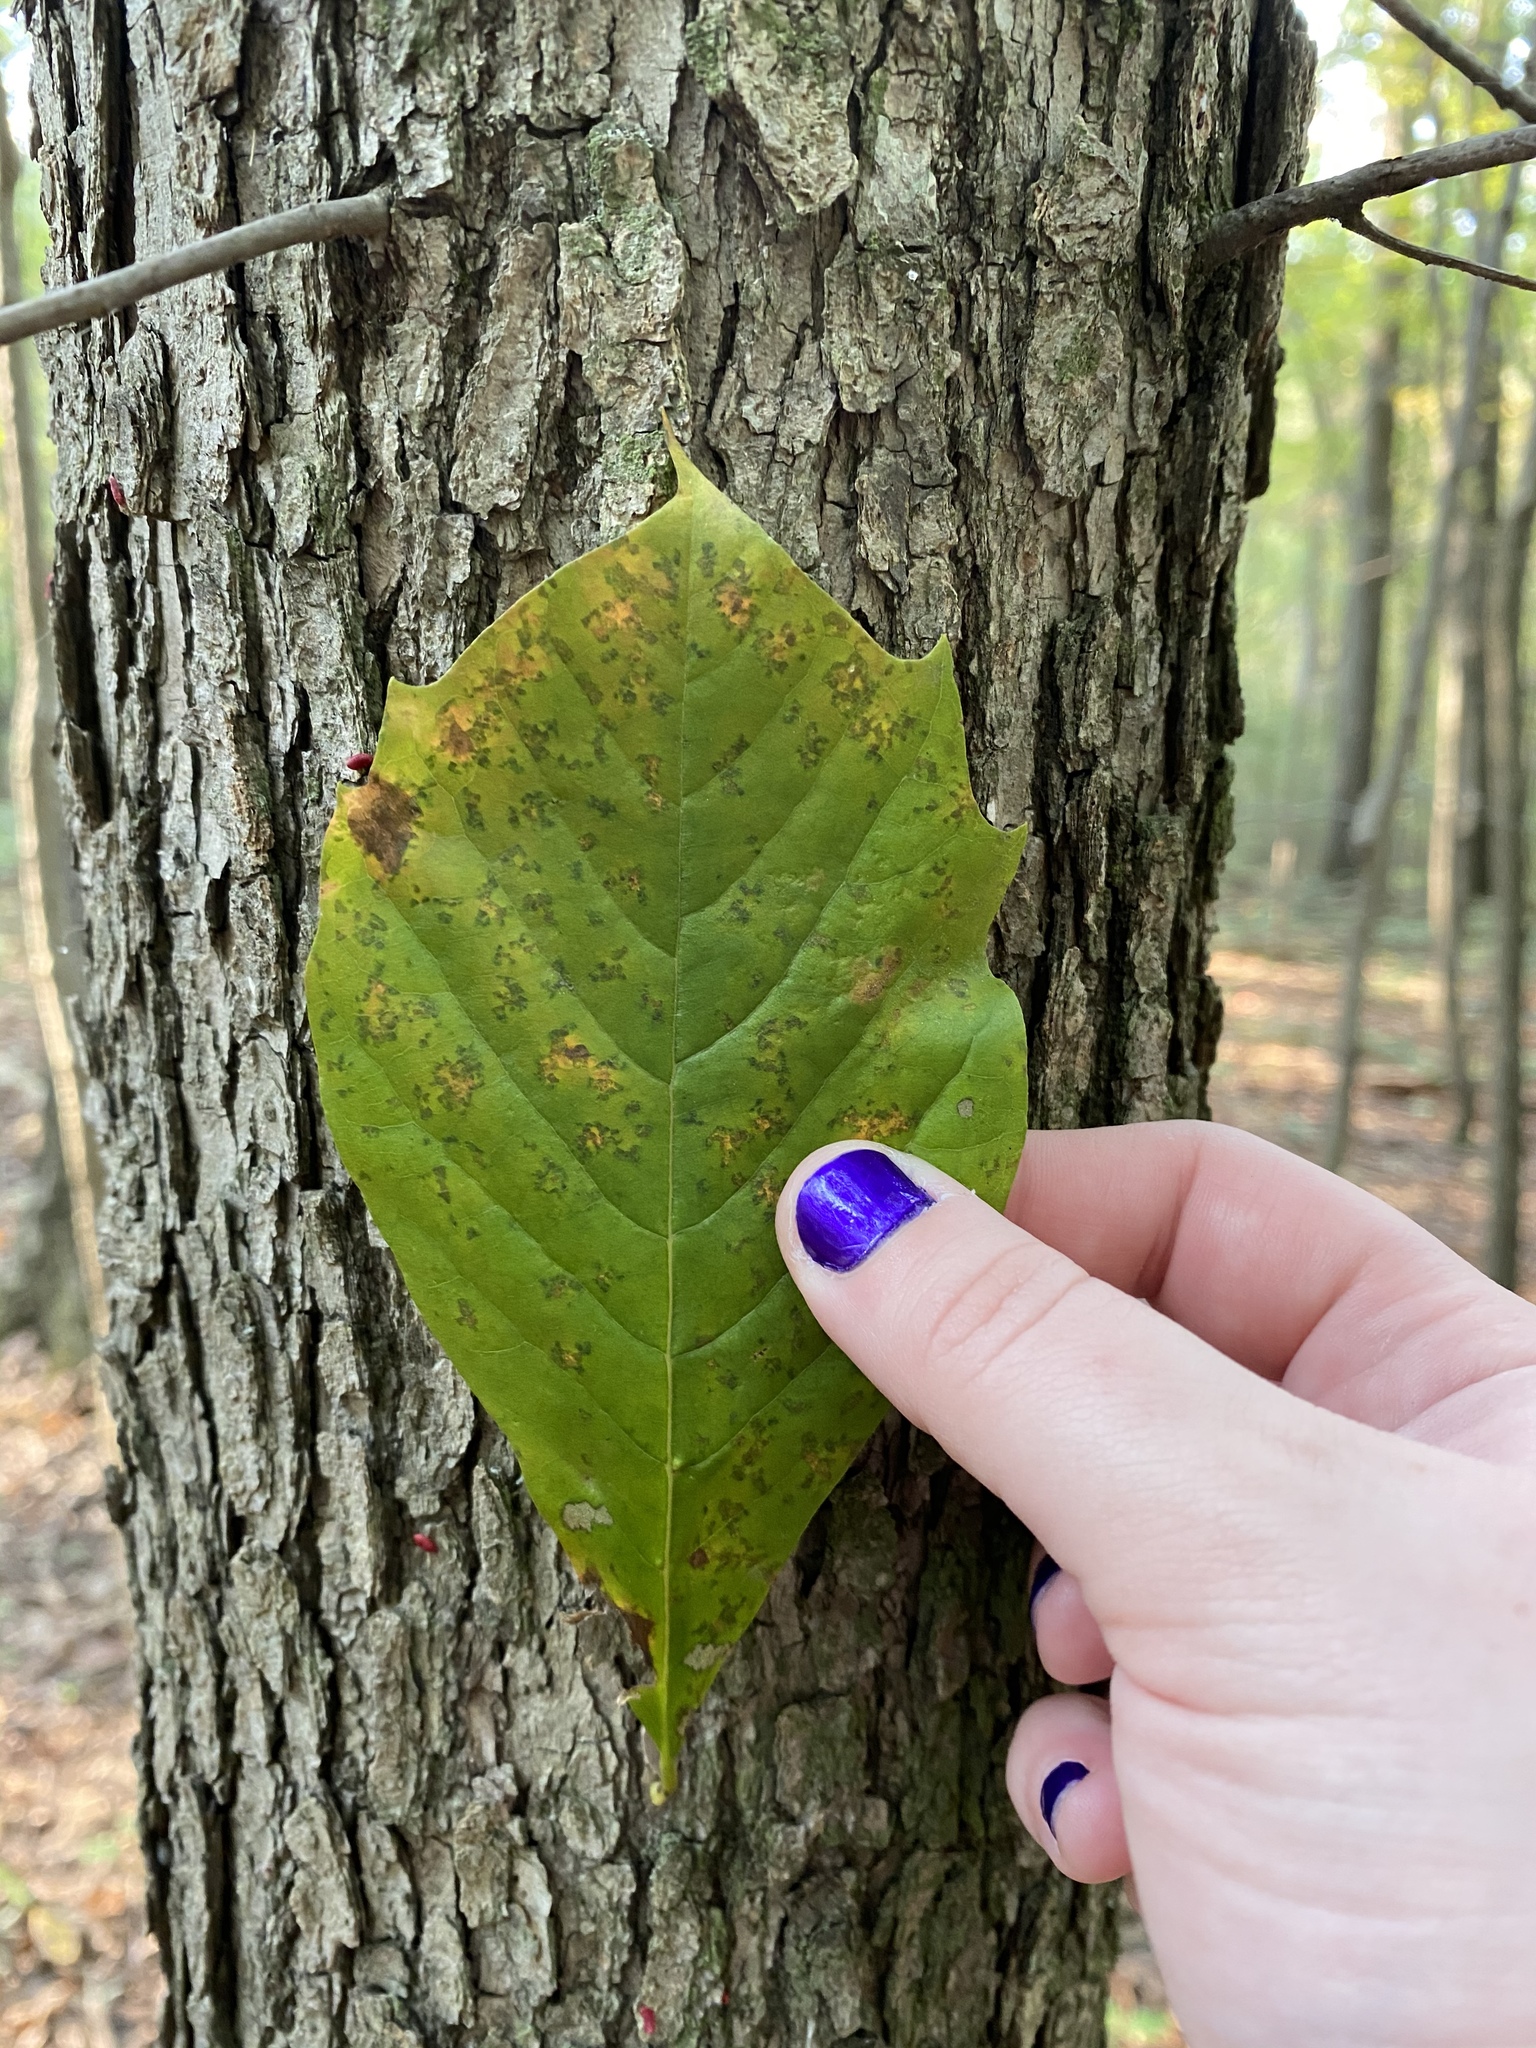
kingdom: Plantae
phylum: Tracheophyta
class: Magnoliopsida
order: Cornales
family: Nyssaceae
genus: Nyssa
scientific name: Nyssa sylvatica
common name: Black tupelo
